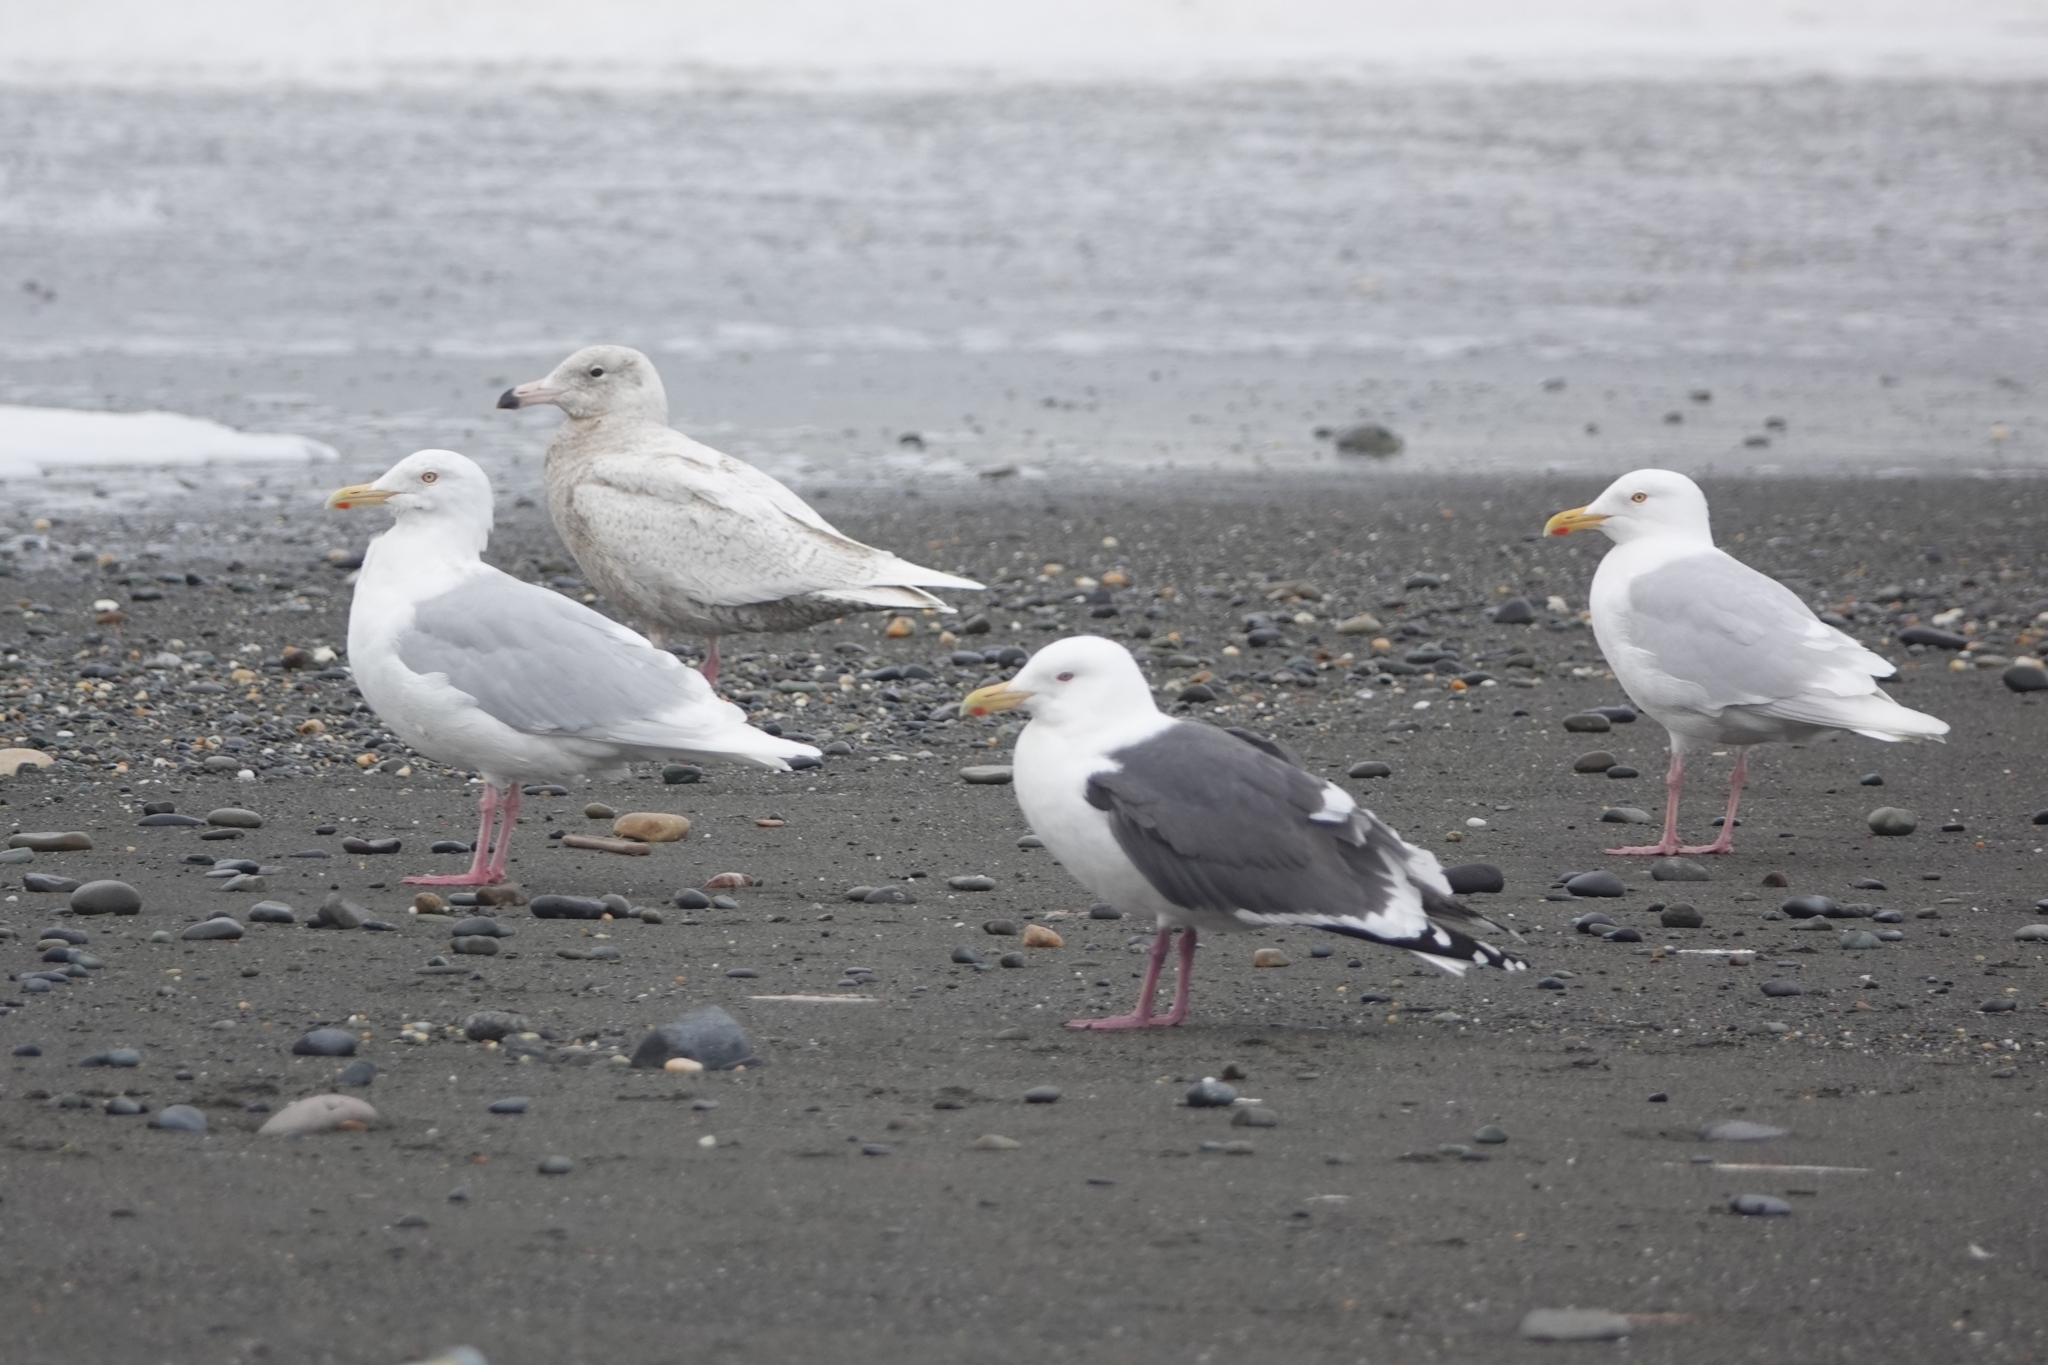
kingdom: Animalia
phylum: Chordata
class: Aves
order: Charadriiformes
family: Laridae
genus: Larus
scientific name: Larus hyperboreus
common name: Glaucous gull
